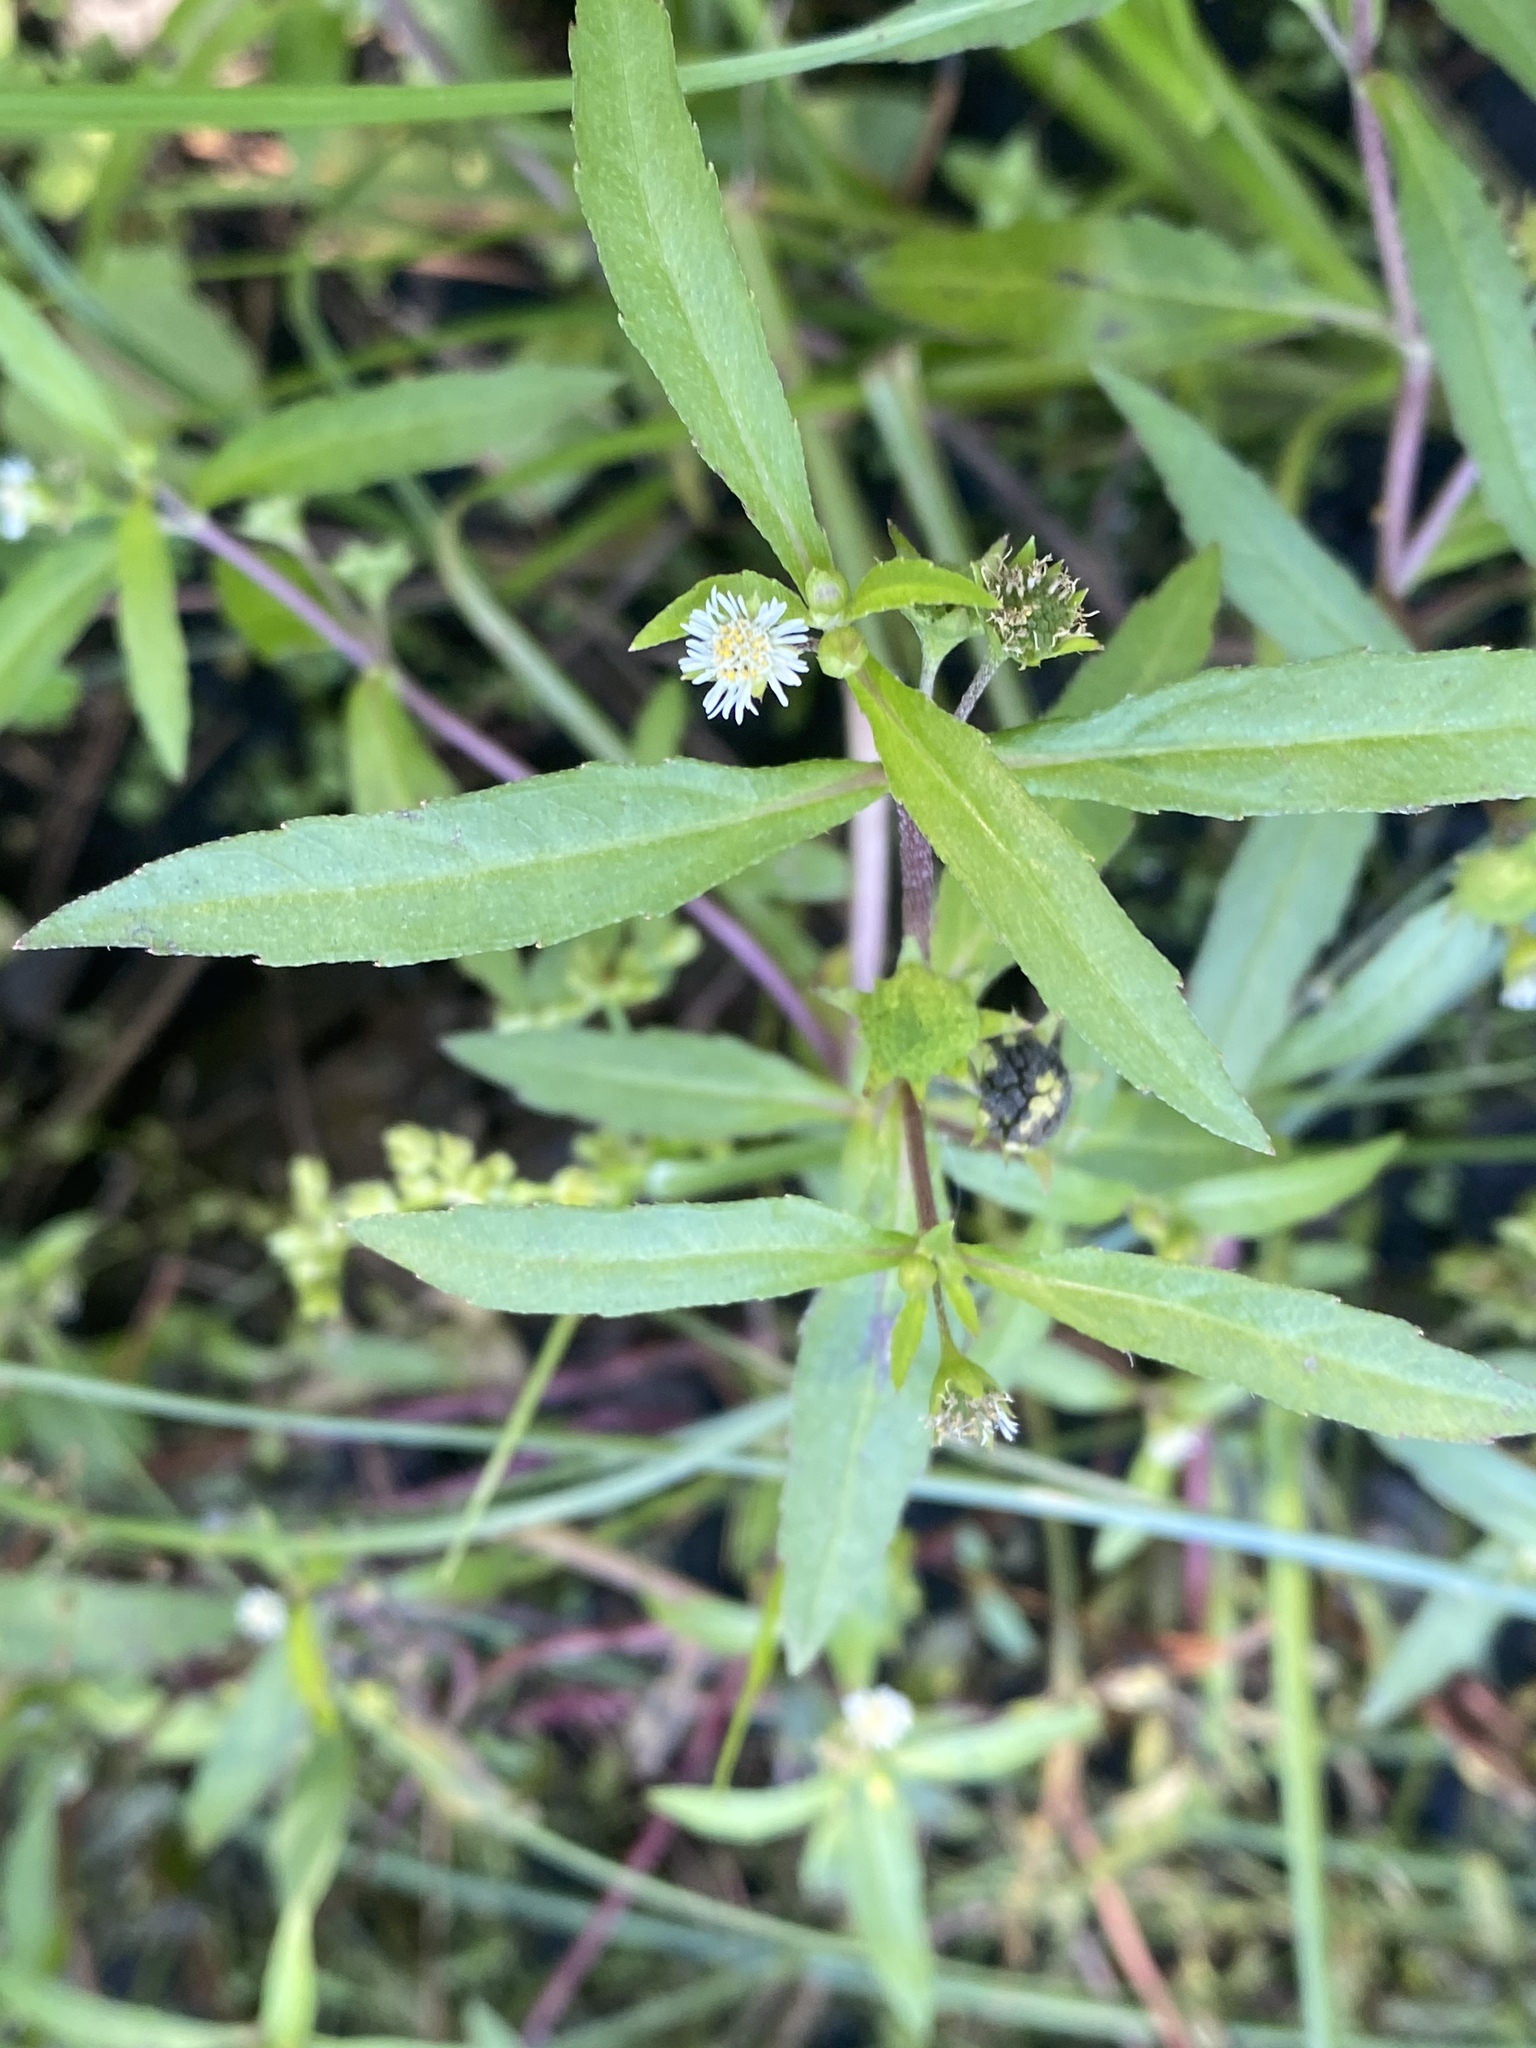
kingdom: Plantae
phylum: Tracheophyta
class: Magnoliopsida
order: Asterales
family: Asteraceae
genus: Eclipta
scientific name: Eclipta prostrata
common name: False daisy
